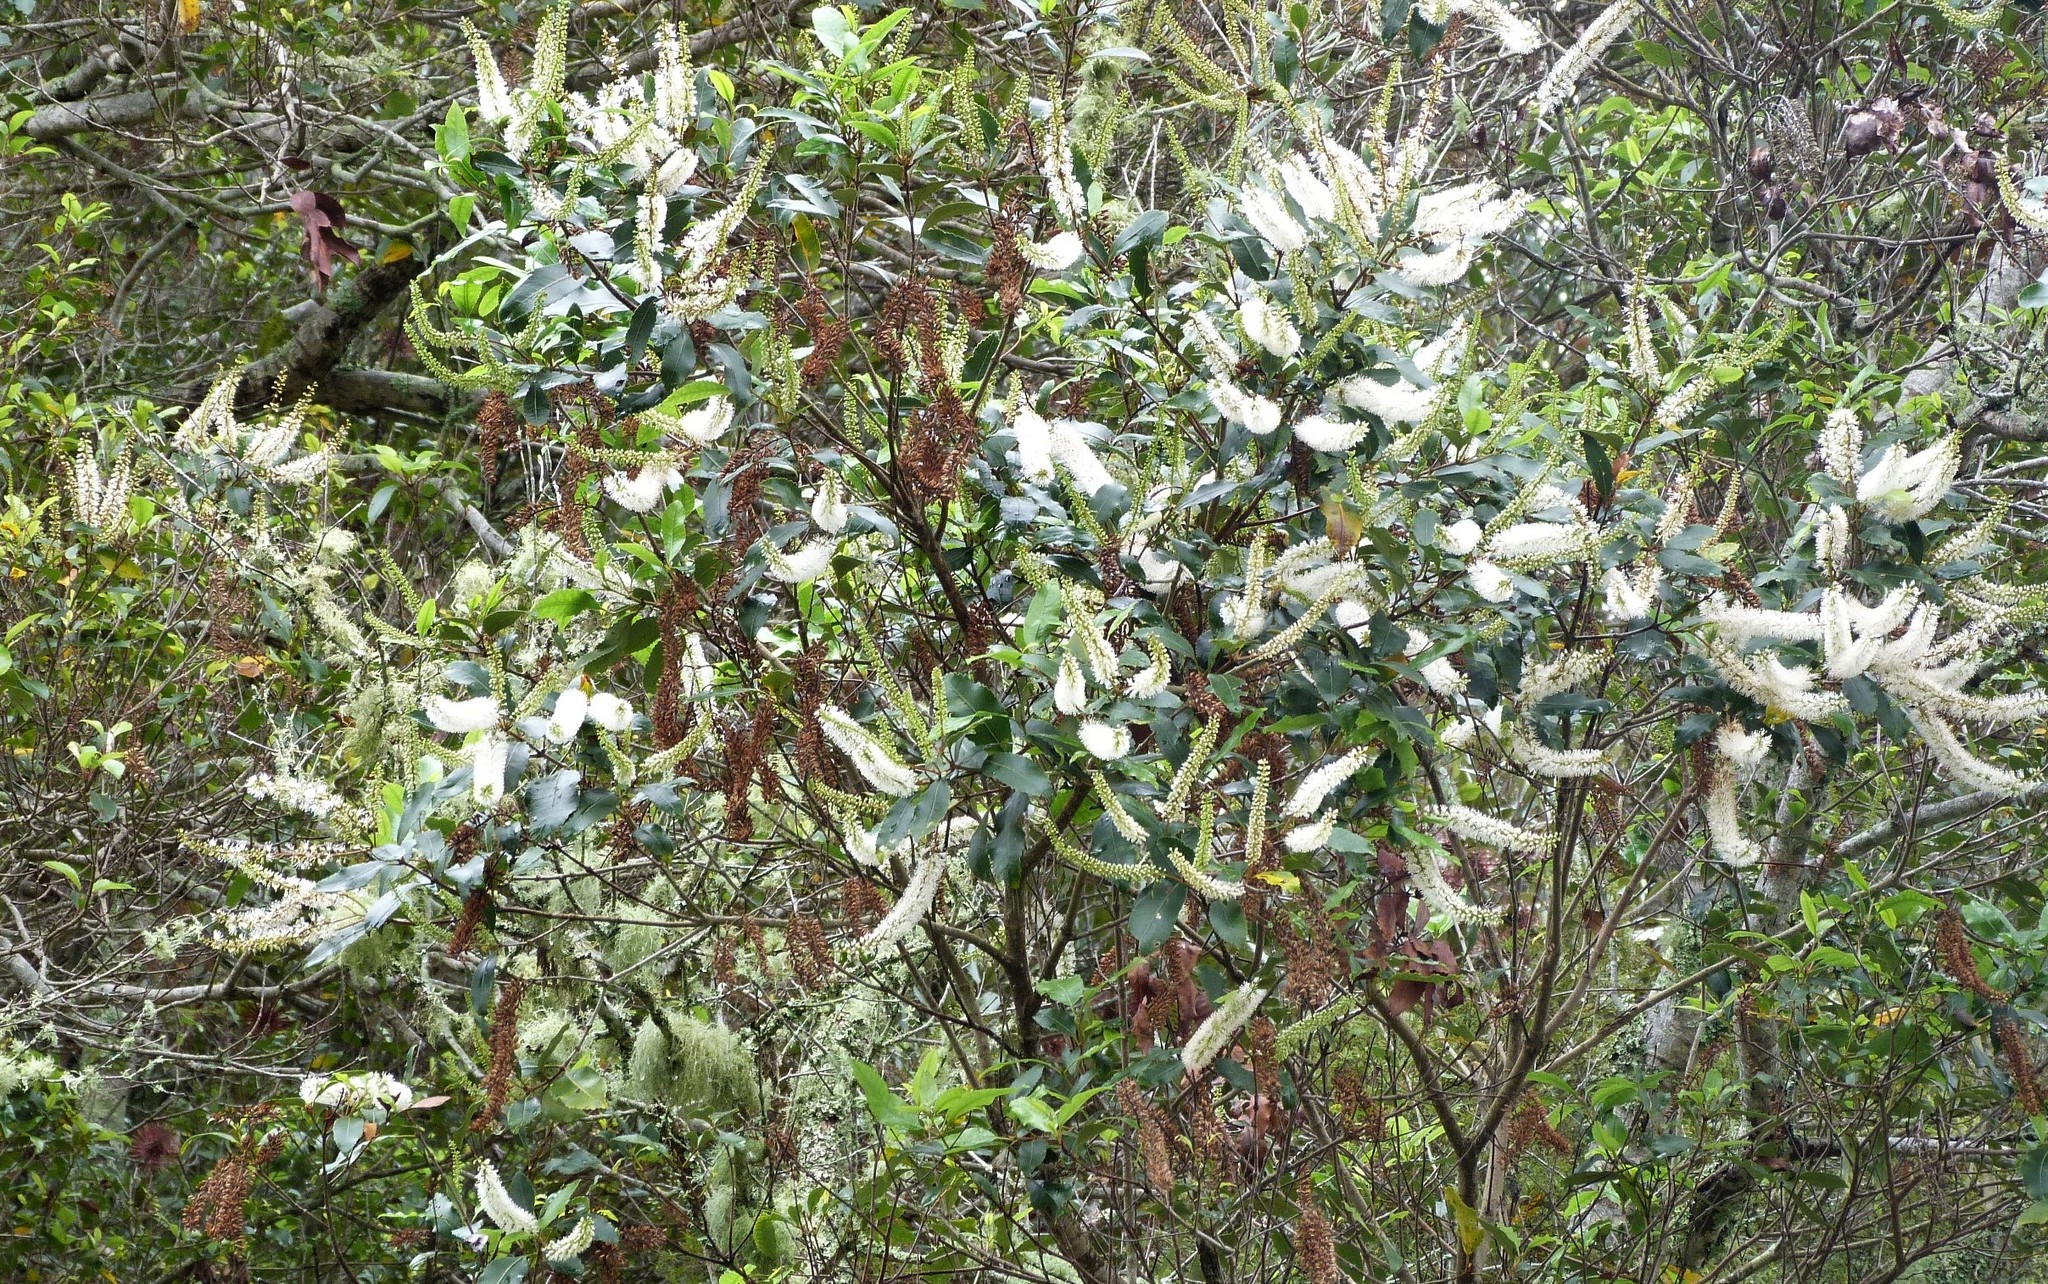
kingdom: Plantae
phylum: Tracheophyta
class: Magnoliopsida
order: Oxalidales
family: Cunoniaceae
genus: Pterophylla
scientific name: Pterophylla racemosa
